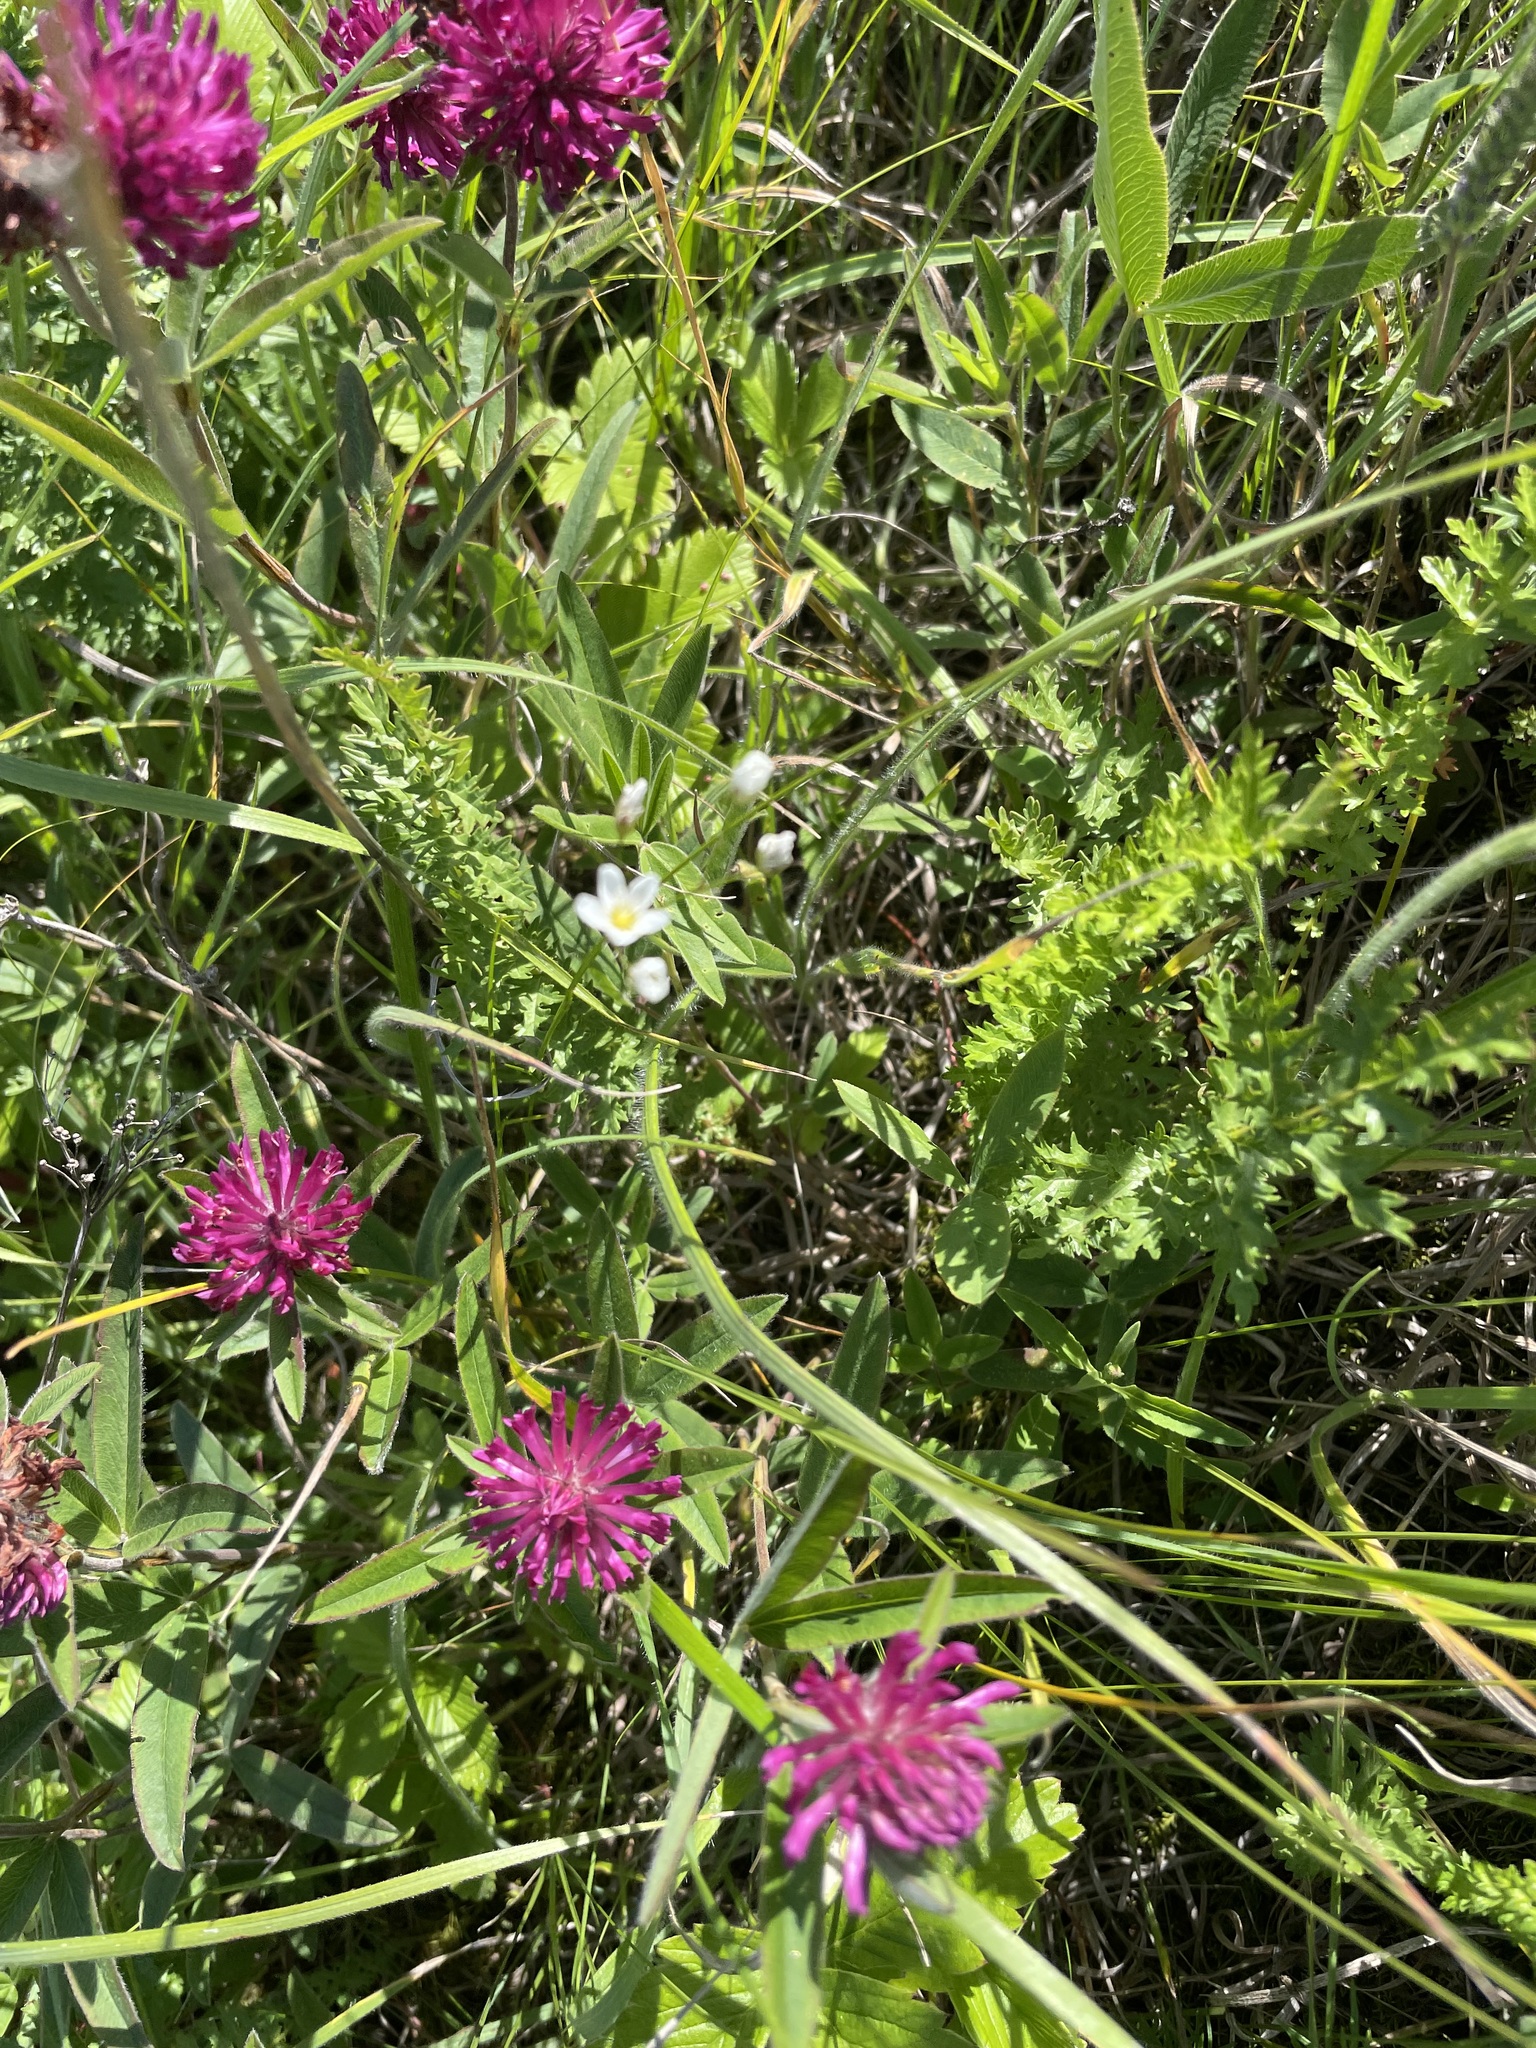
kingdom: Plantae
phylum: Tracheophyta
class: Magnoliopsida
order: Fabales
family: Fabaceae
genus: Trifolium
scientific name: Trifolium alpestre
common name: Owl-head clover
